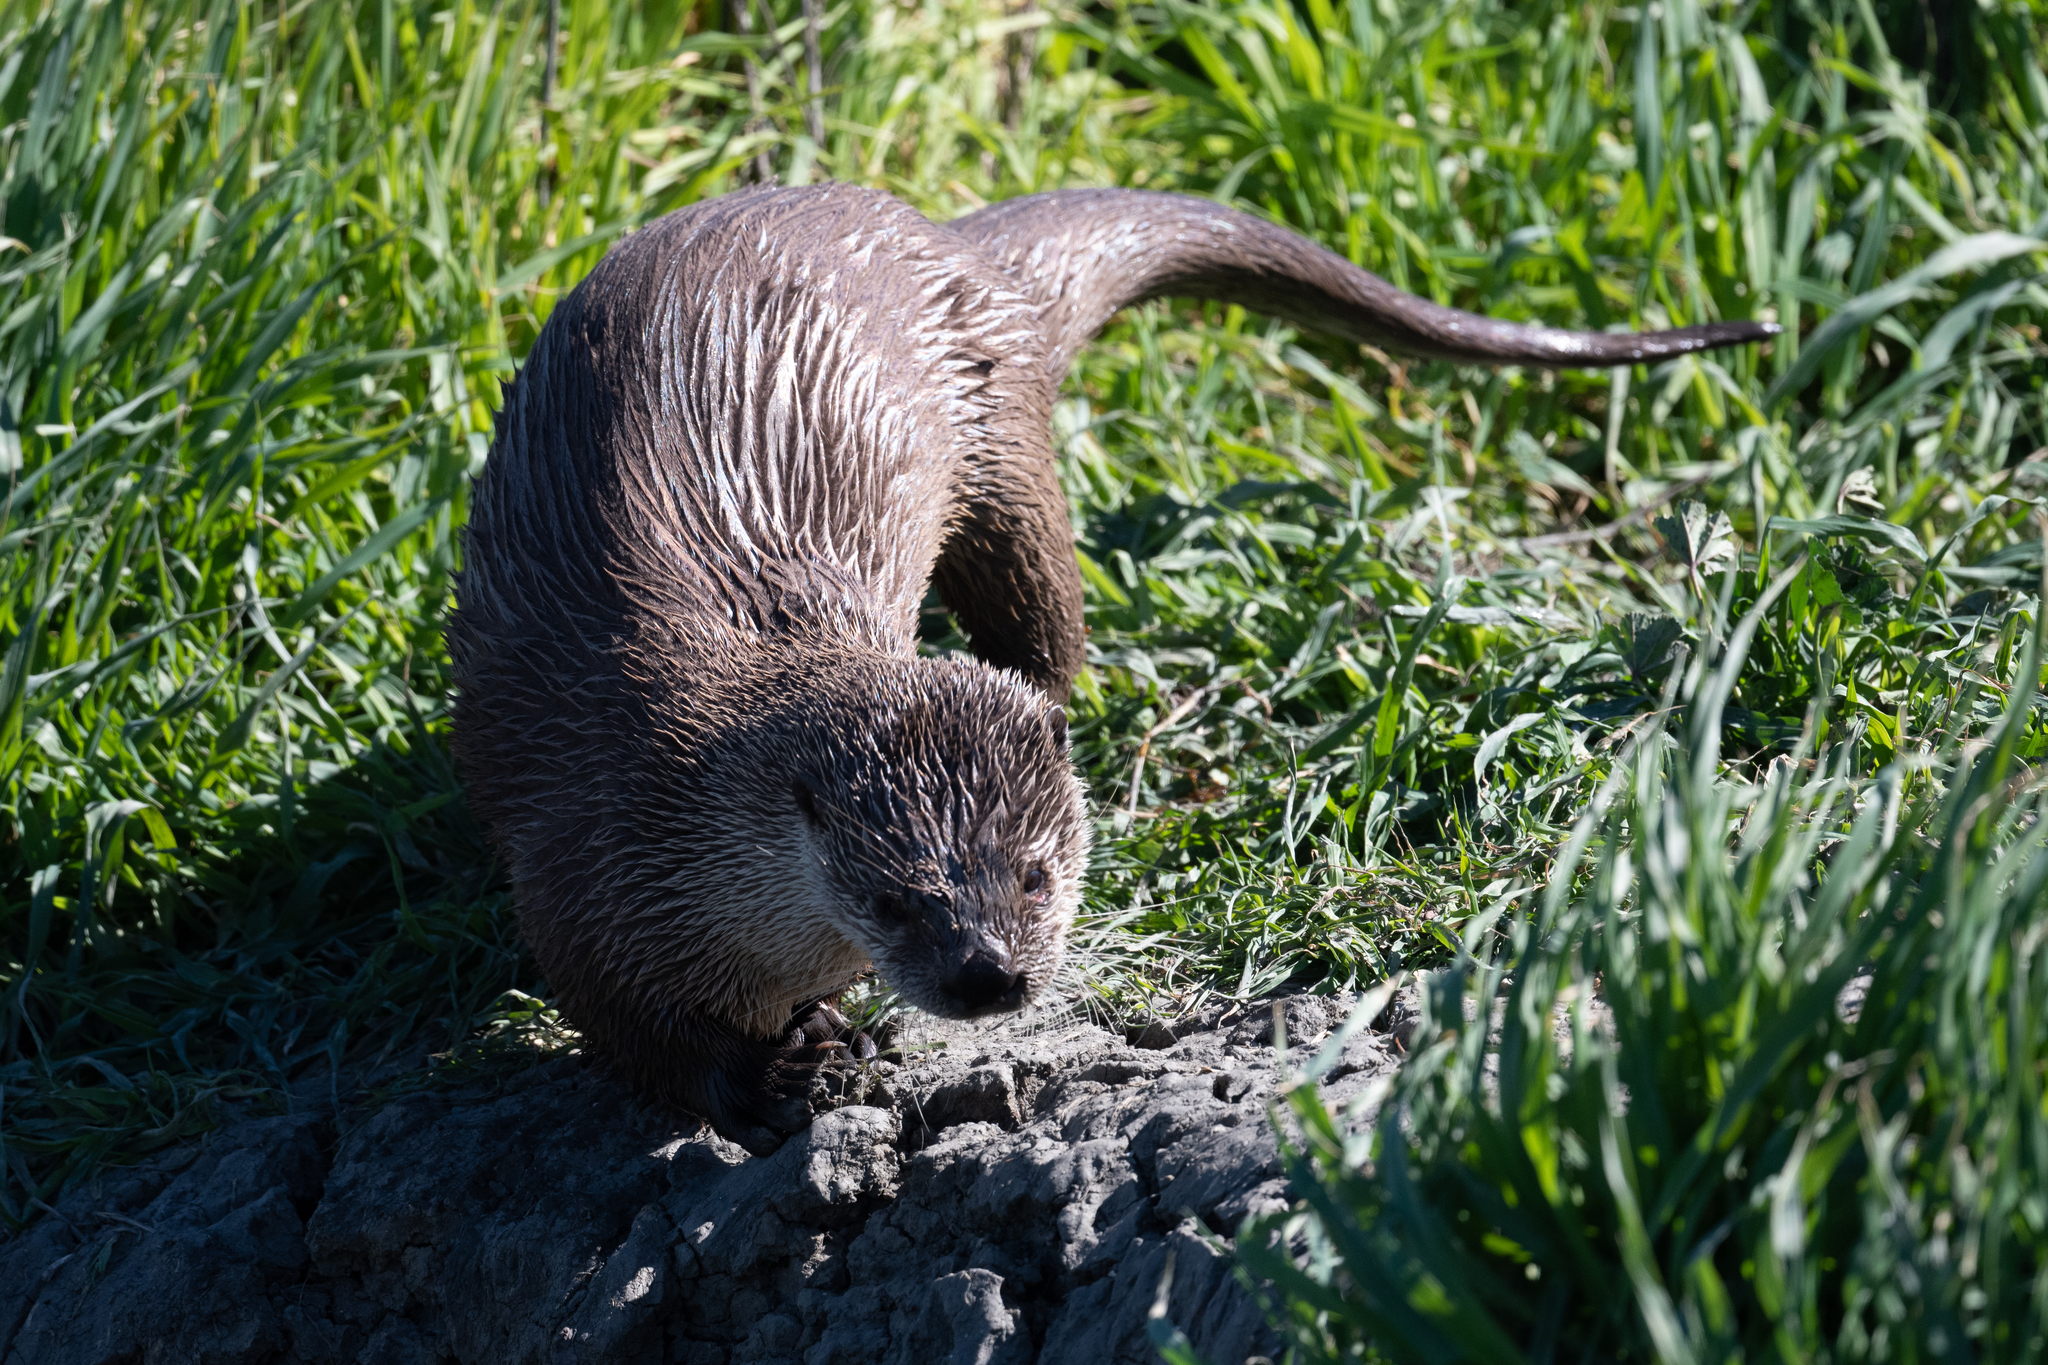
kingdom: Animalia
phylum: Chordata
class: Mammalia
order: Carnivora
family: Mustelidae
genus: Lontra
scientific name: Lontra canadensis
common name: North american river otter
